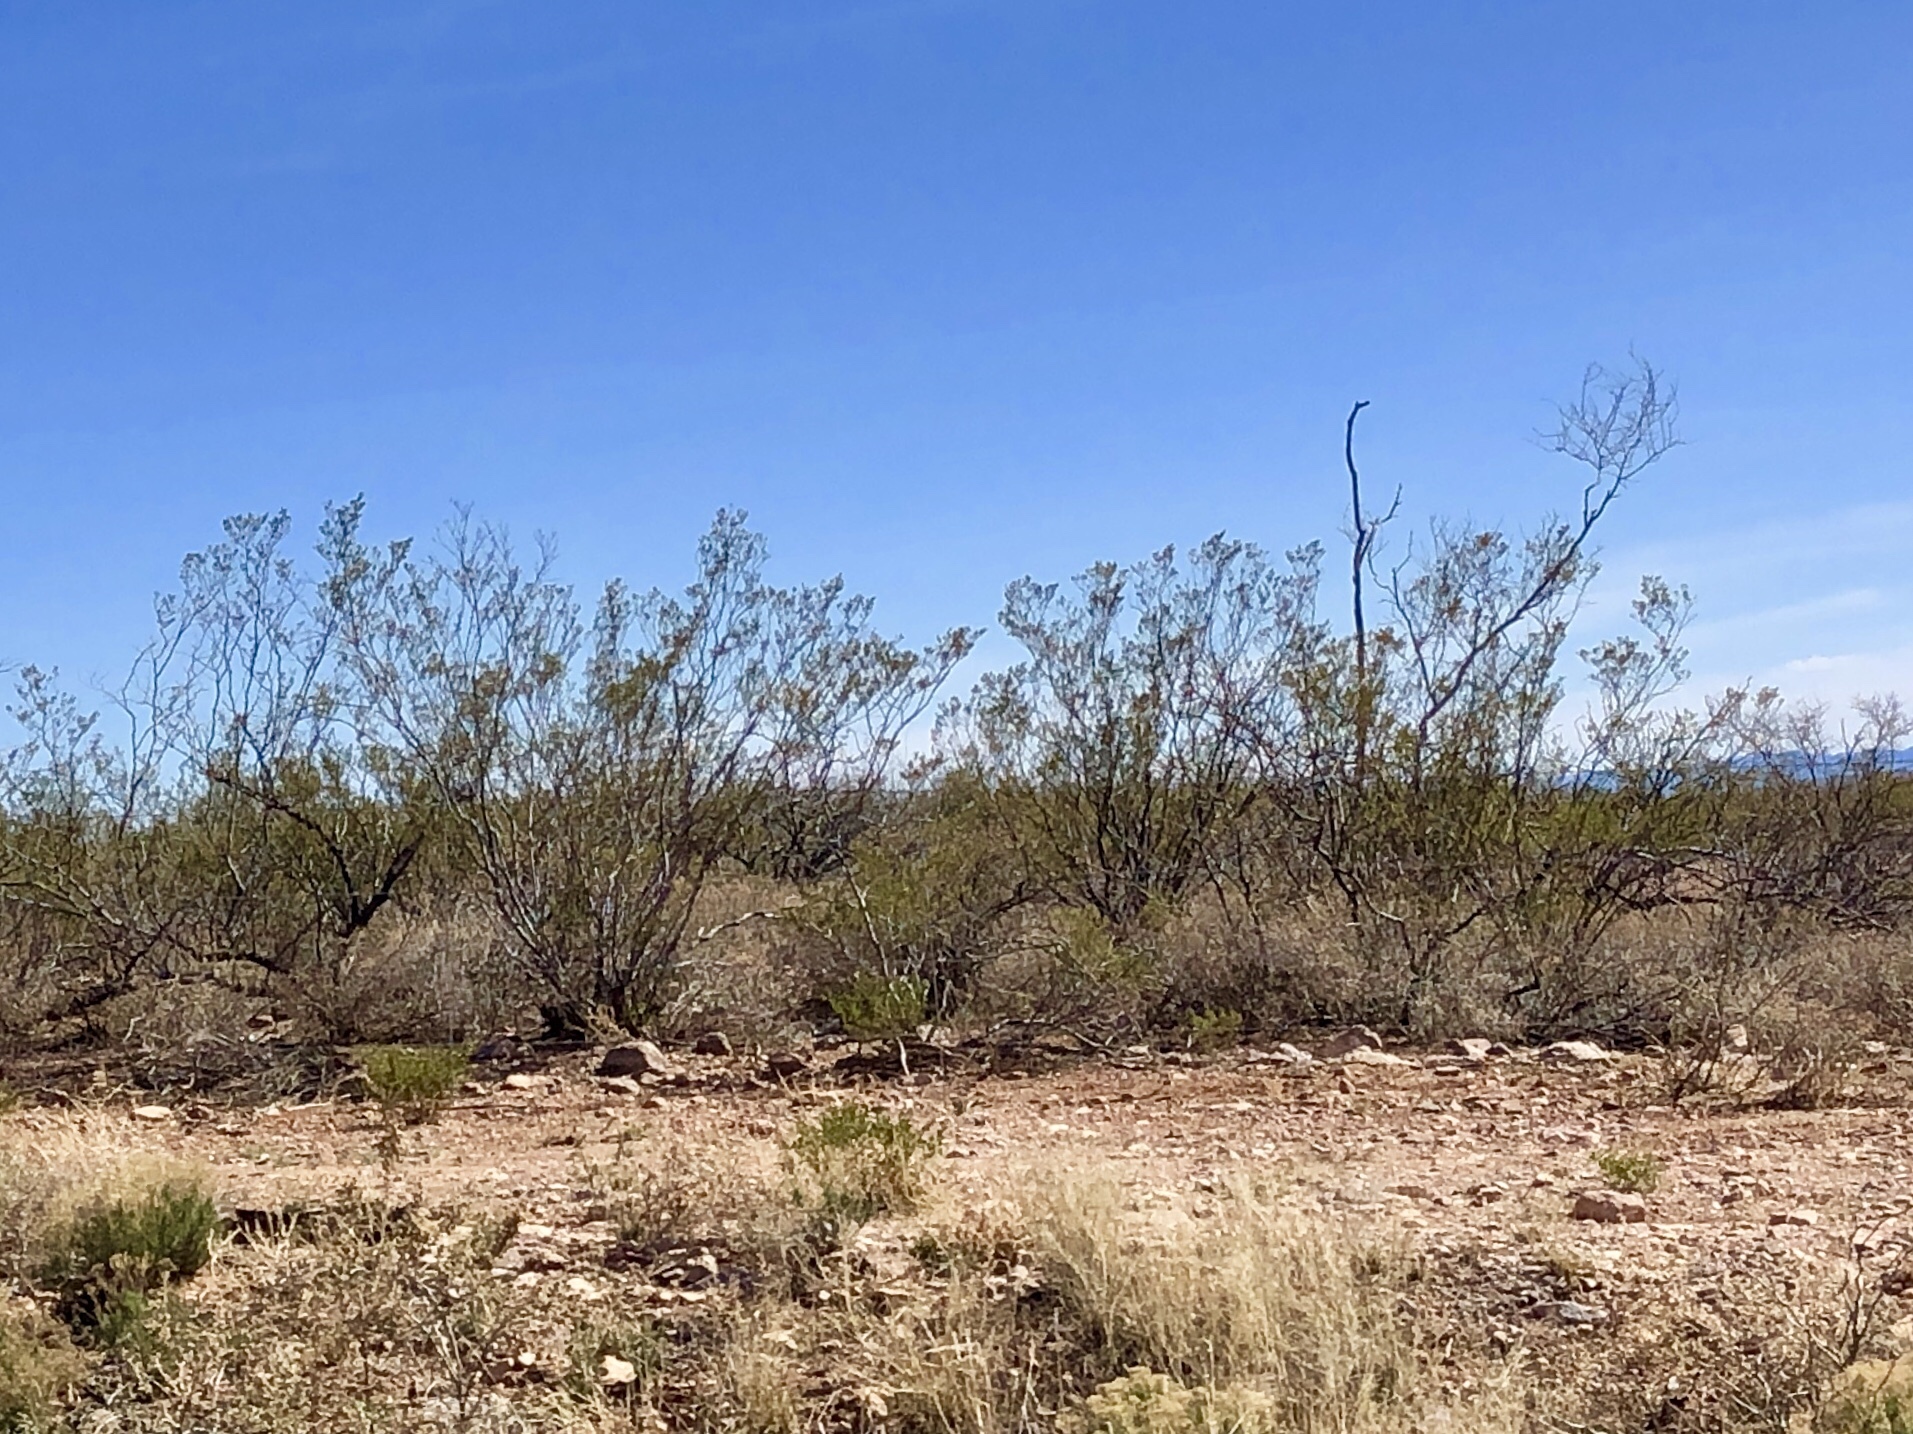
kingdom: Plantae
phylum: Tracheophyta
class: Magnoliopsida
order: Zygophyllales
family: Zygophyllaceae
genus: Larrea
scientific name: Larrea tridentata
